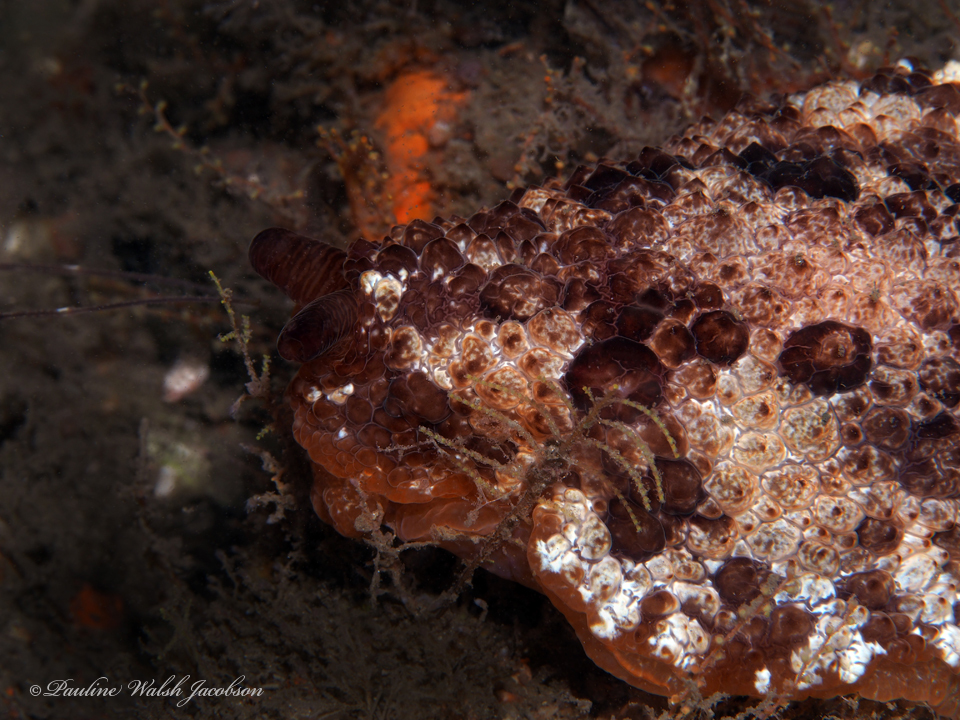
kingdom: Animalia
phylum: Mollusca
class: Gastropoda
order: Pleurobranchida
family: Pleurobranchidae
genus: Pleurobranchus
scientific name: Pleurobranchus areolatus
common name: Atlantic sidegill slug
